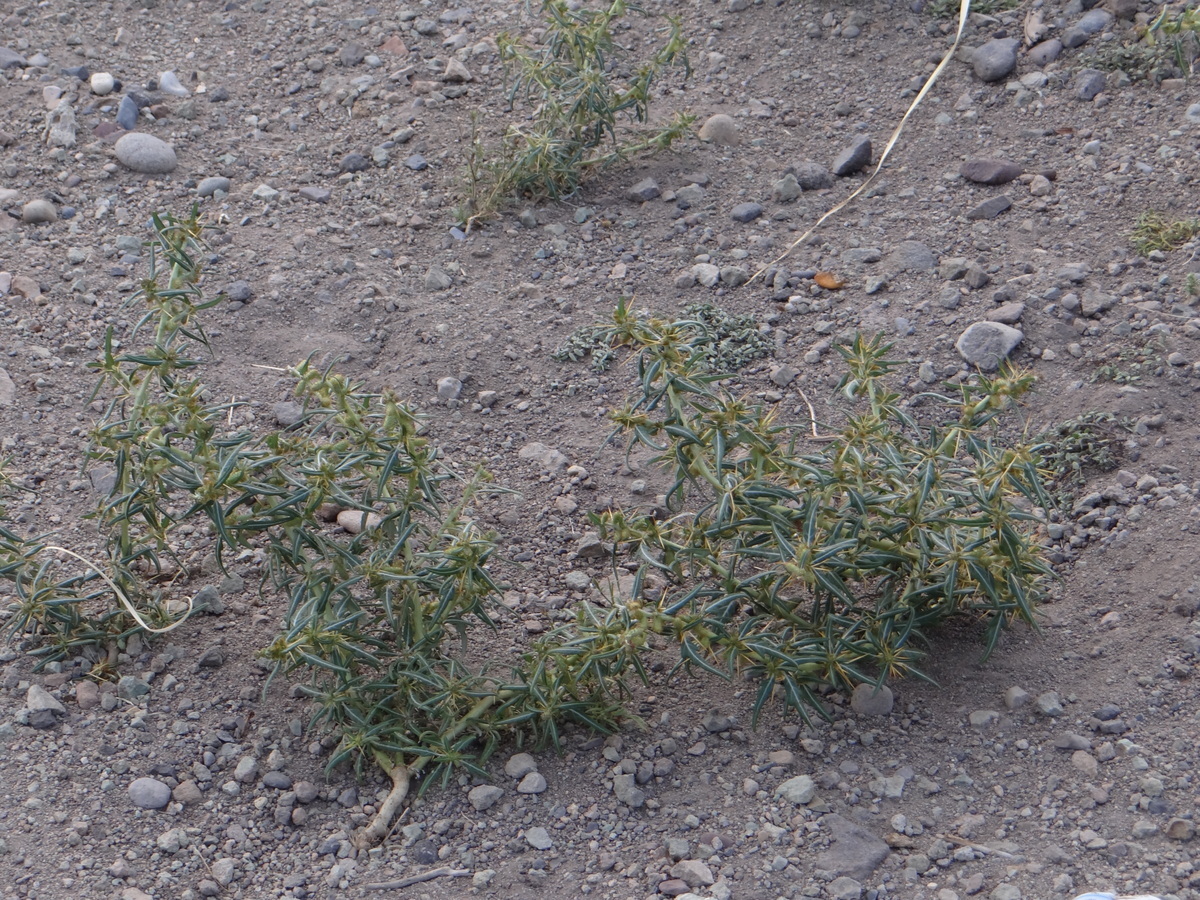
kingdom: Plantae
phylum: Tracheophyta
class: Magnoliopsida
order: Asterales
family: Asteraceae
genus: Xanthium
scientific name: Xanthium spinosum
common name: Spiny cocklebur
